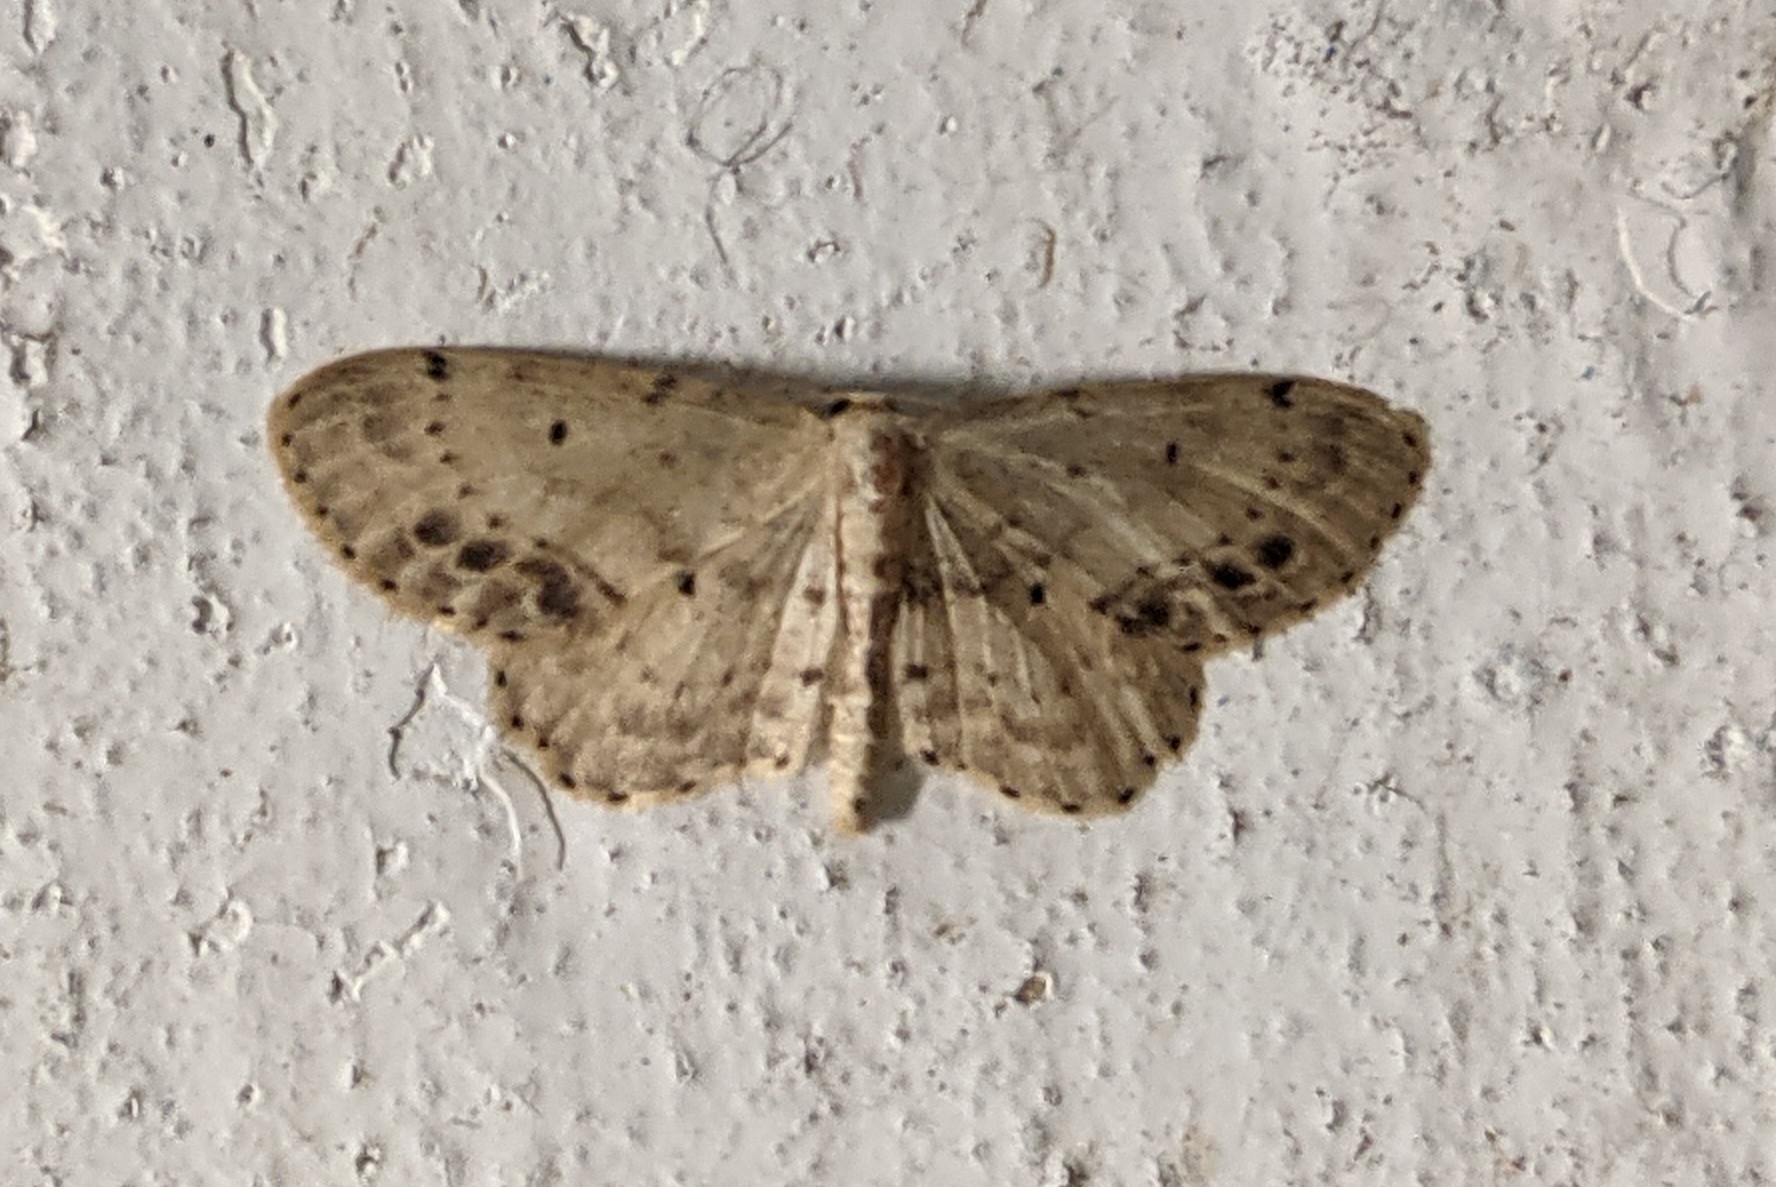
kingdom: Animalia
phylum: Arthropoda
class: Insecta
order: Lepidoptera
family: Geometridae
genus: Idaea
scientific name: Idaea dimidiata
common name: Single-dotted wave
